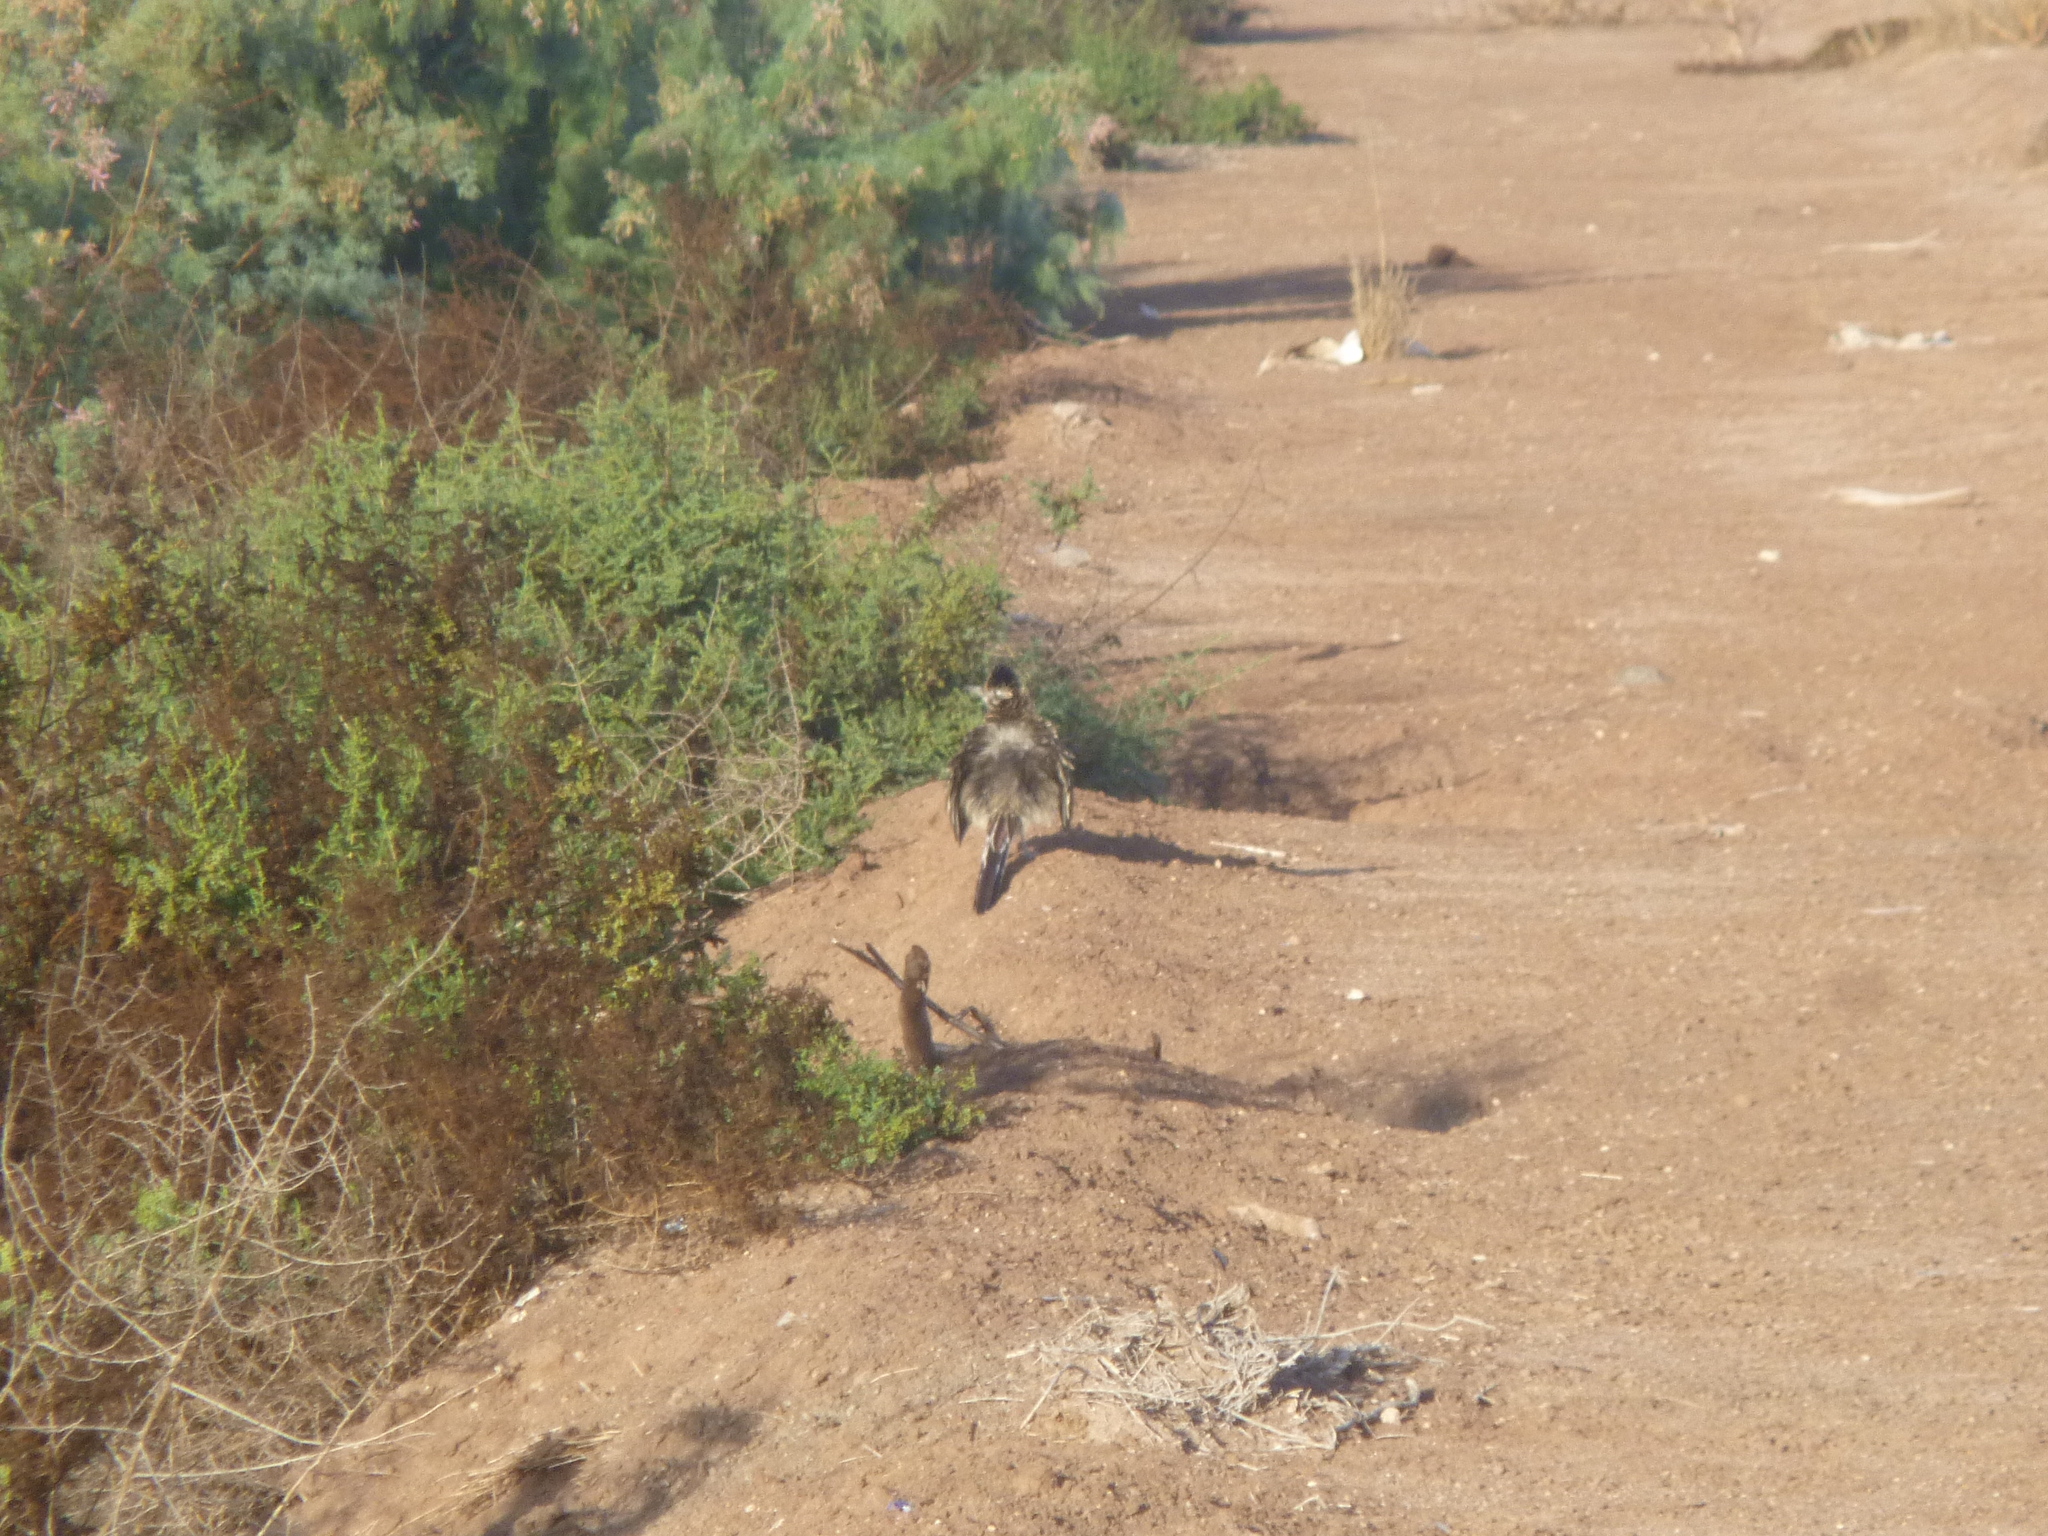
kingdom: Animalia
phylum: Chordata
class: Aves
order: Cuculiformes
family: Cuculidae
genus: Geococcyx
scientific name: Geococcyx californianus
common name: Greater roadrunner
